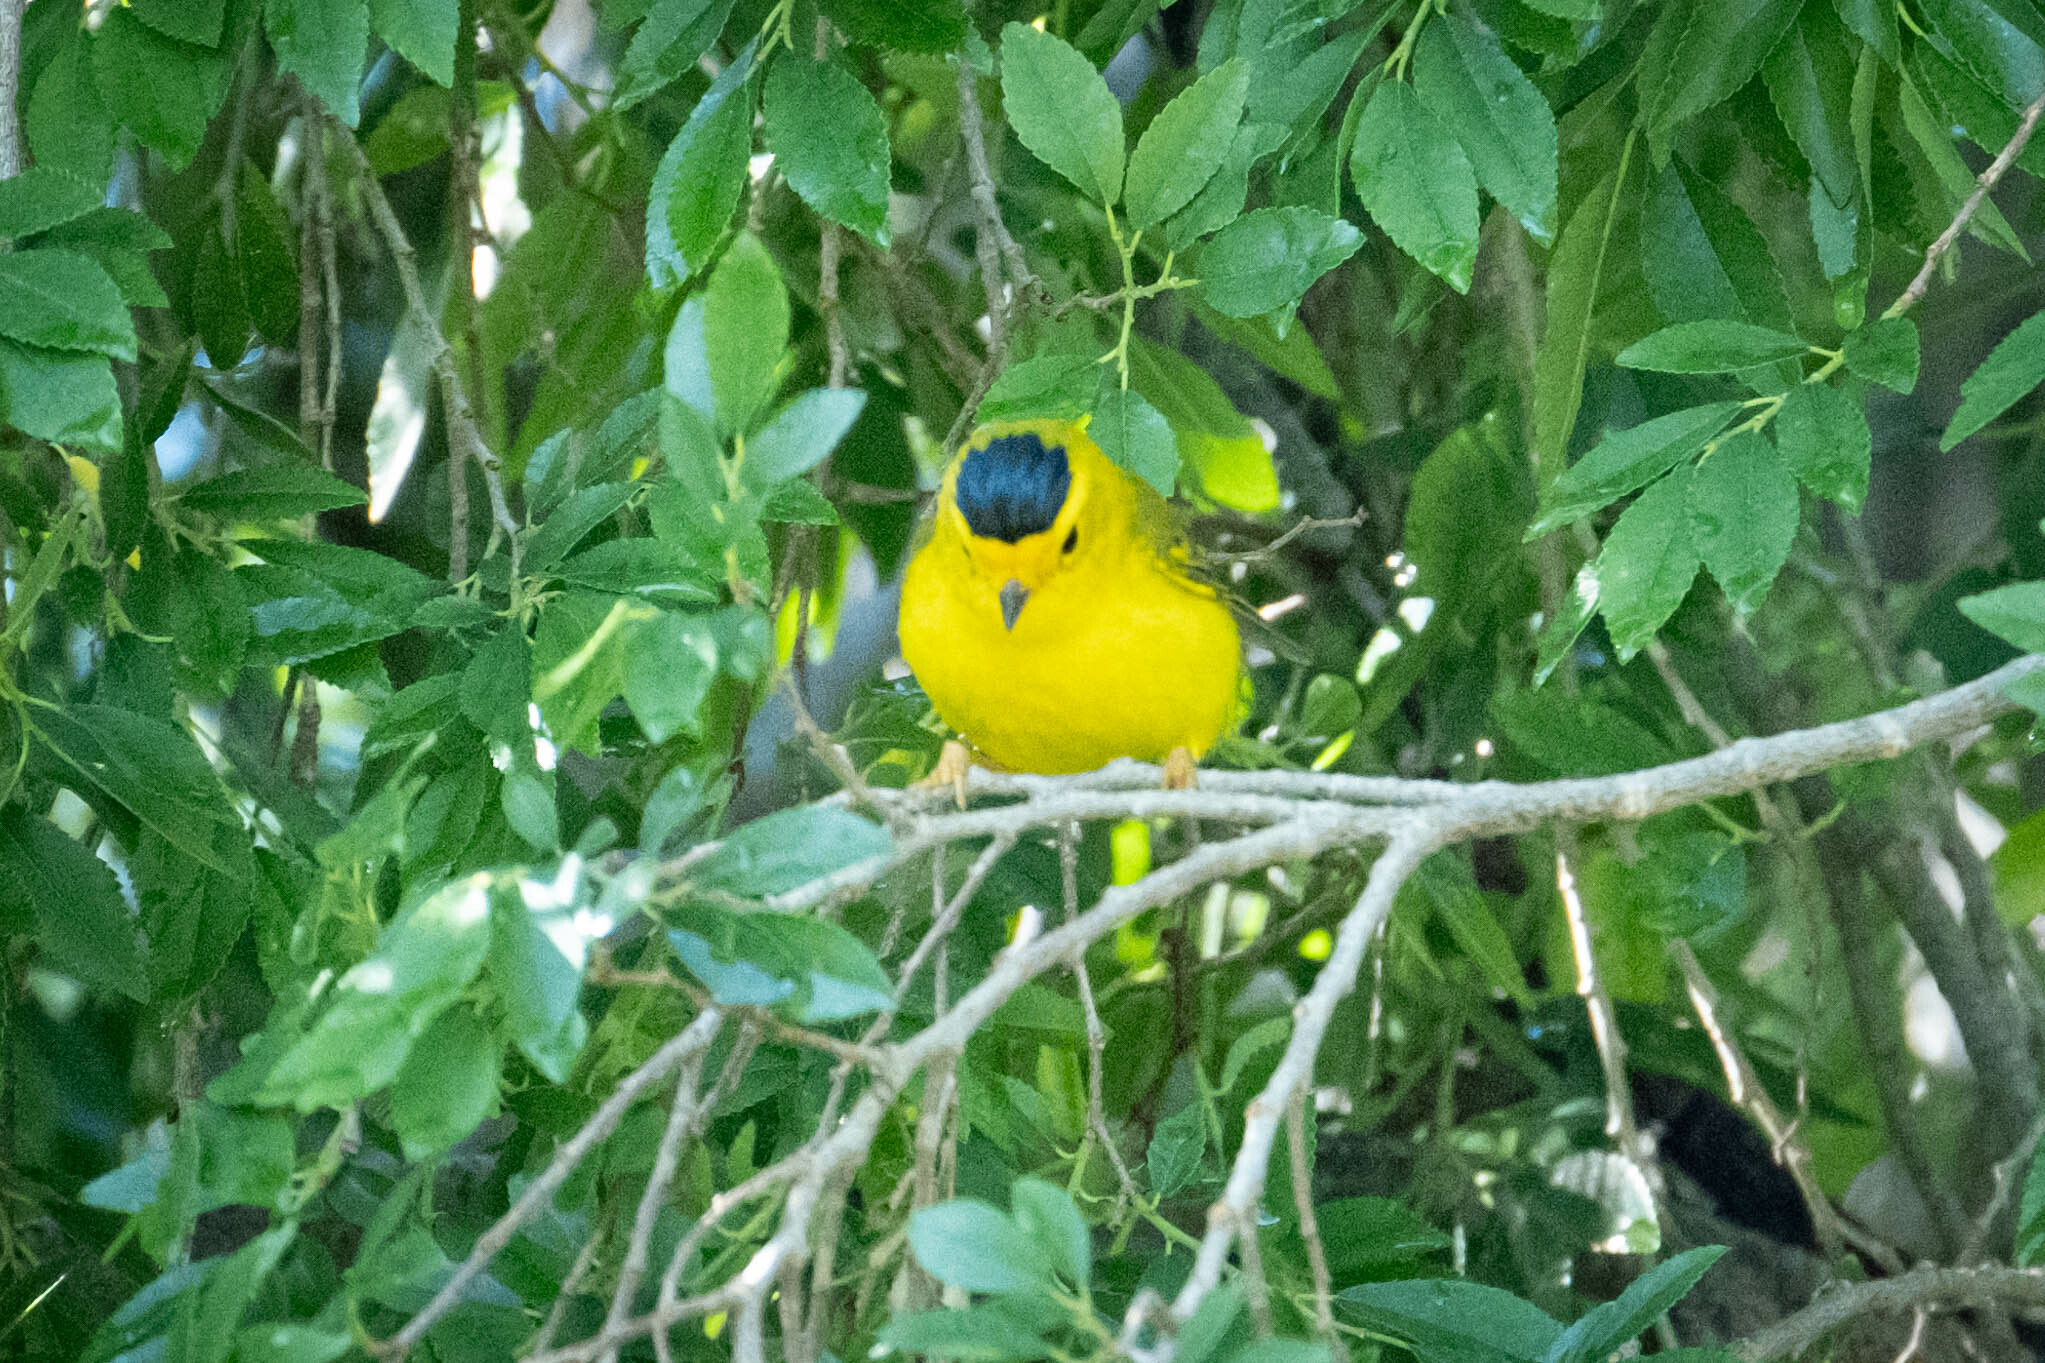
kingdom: Animalia
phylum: Chordata
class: Aves
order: Passeriformes
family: Parulidae
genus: Cardellina
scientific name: Cardellina pusilla
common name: Wilson's warbler
